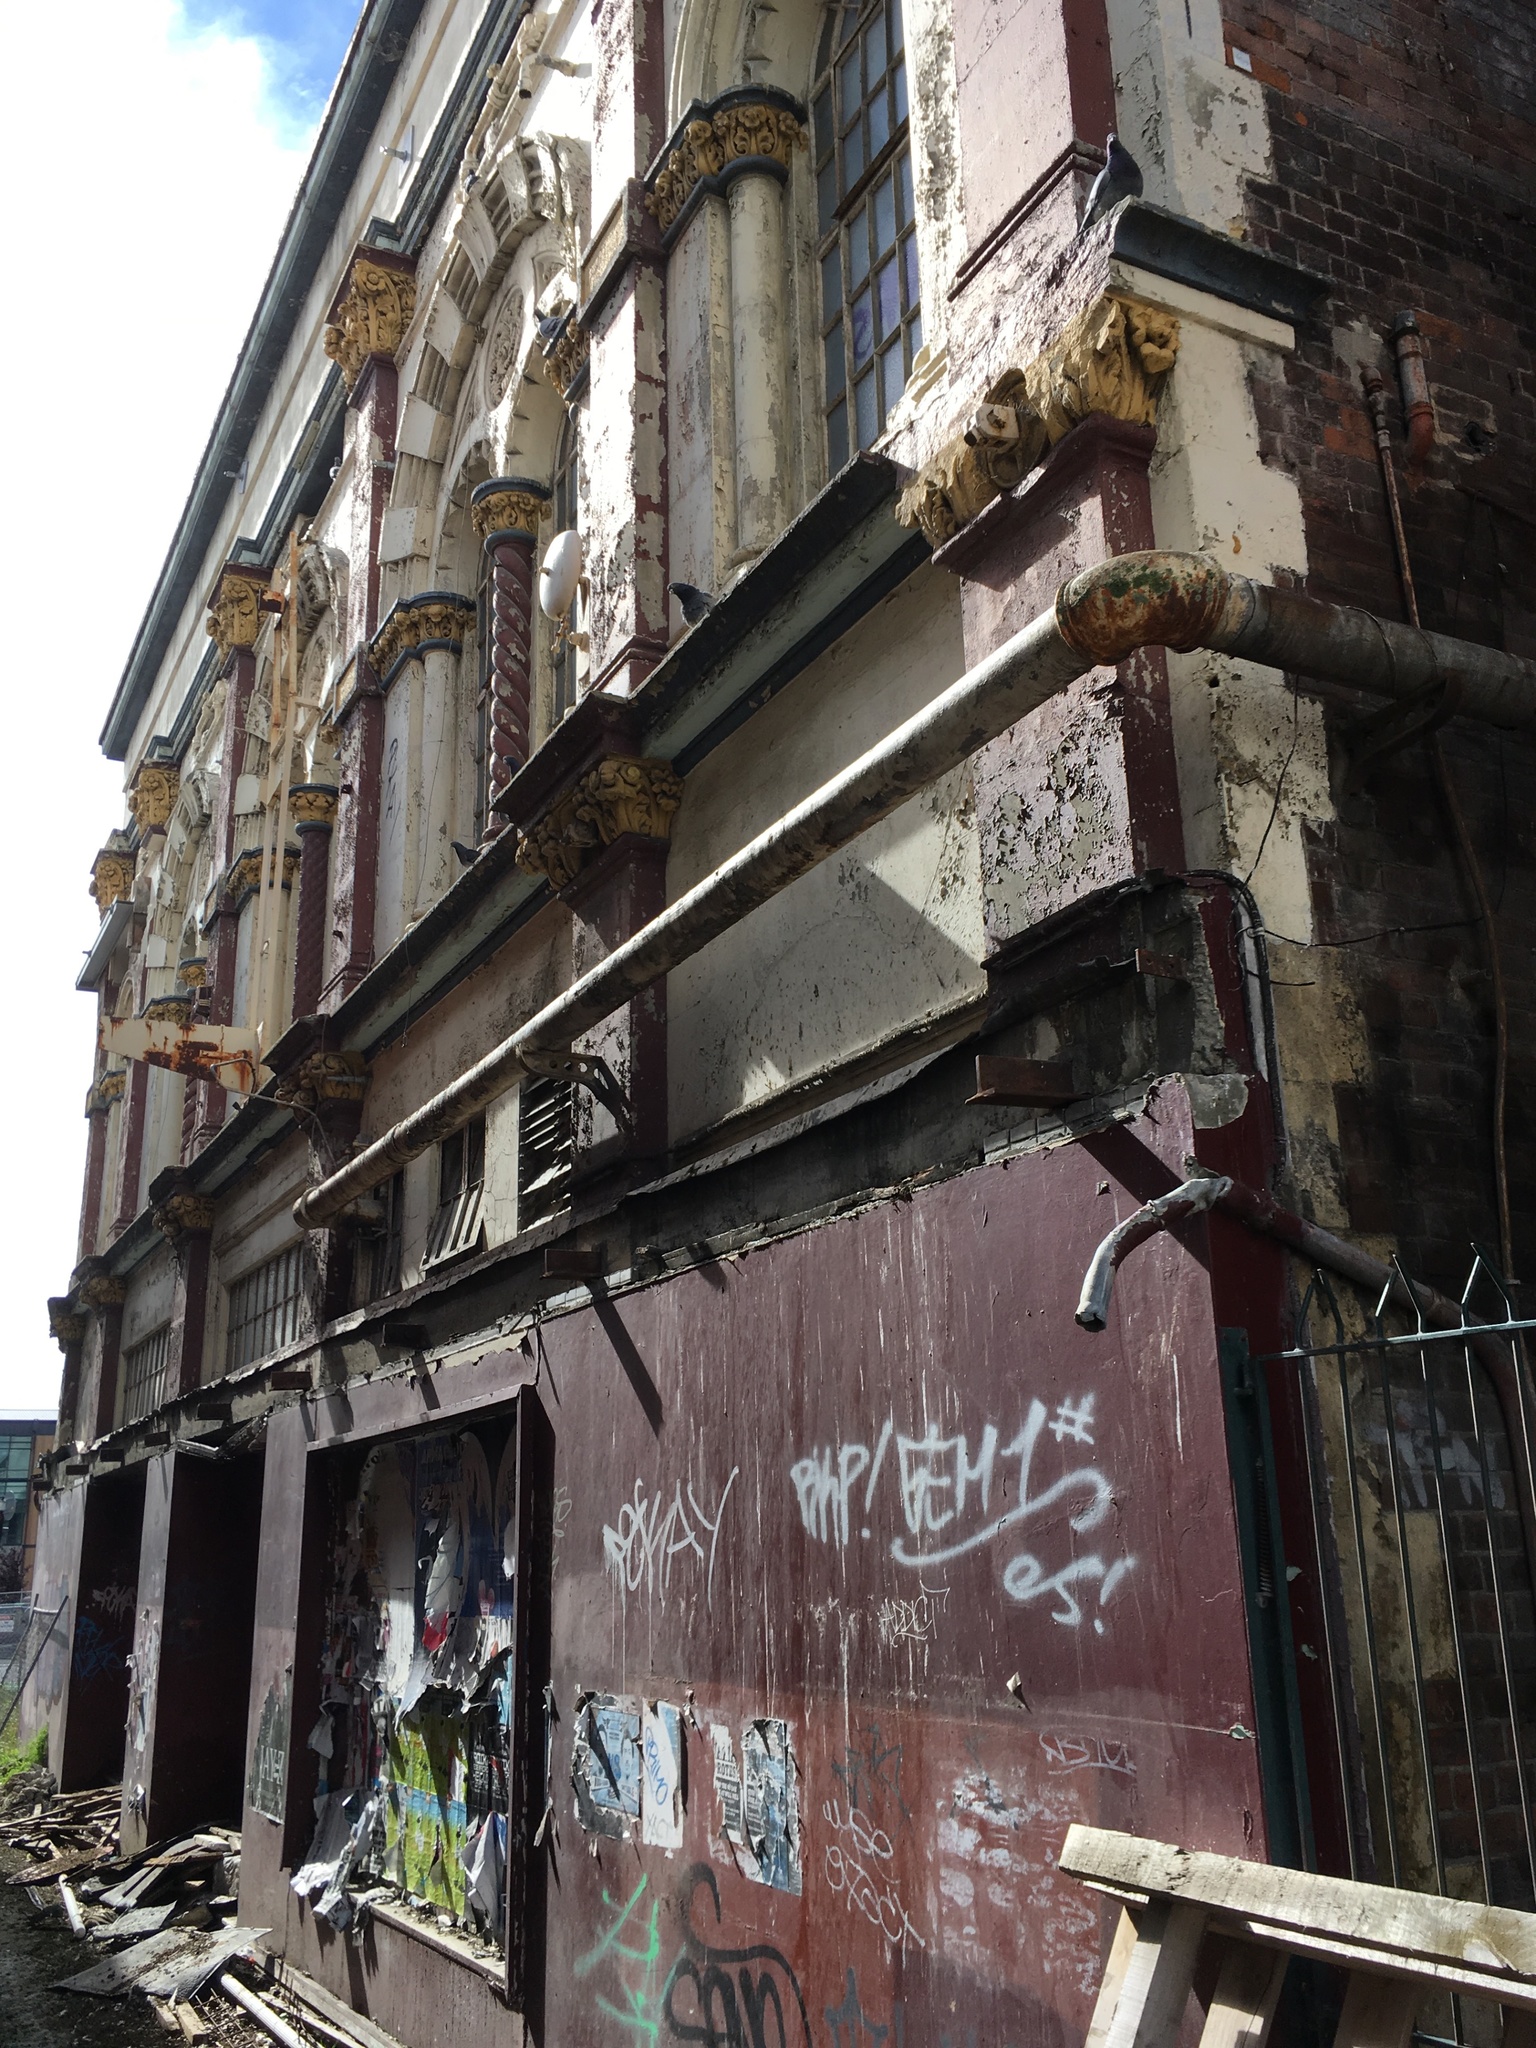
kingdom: Animalia
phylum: Chordata
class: Aves
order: Columbiformes
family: Columbidae
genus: Columba
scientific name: Columba livia
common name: Rock pigeon
